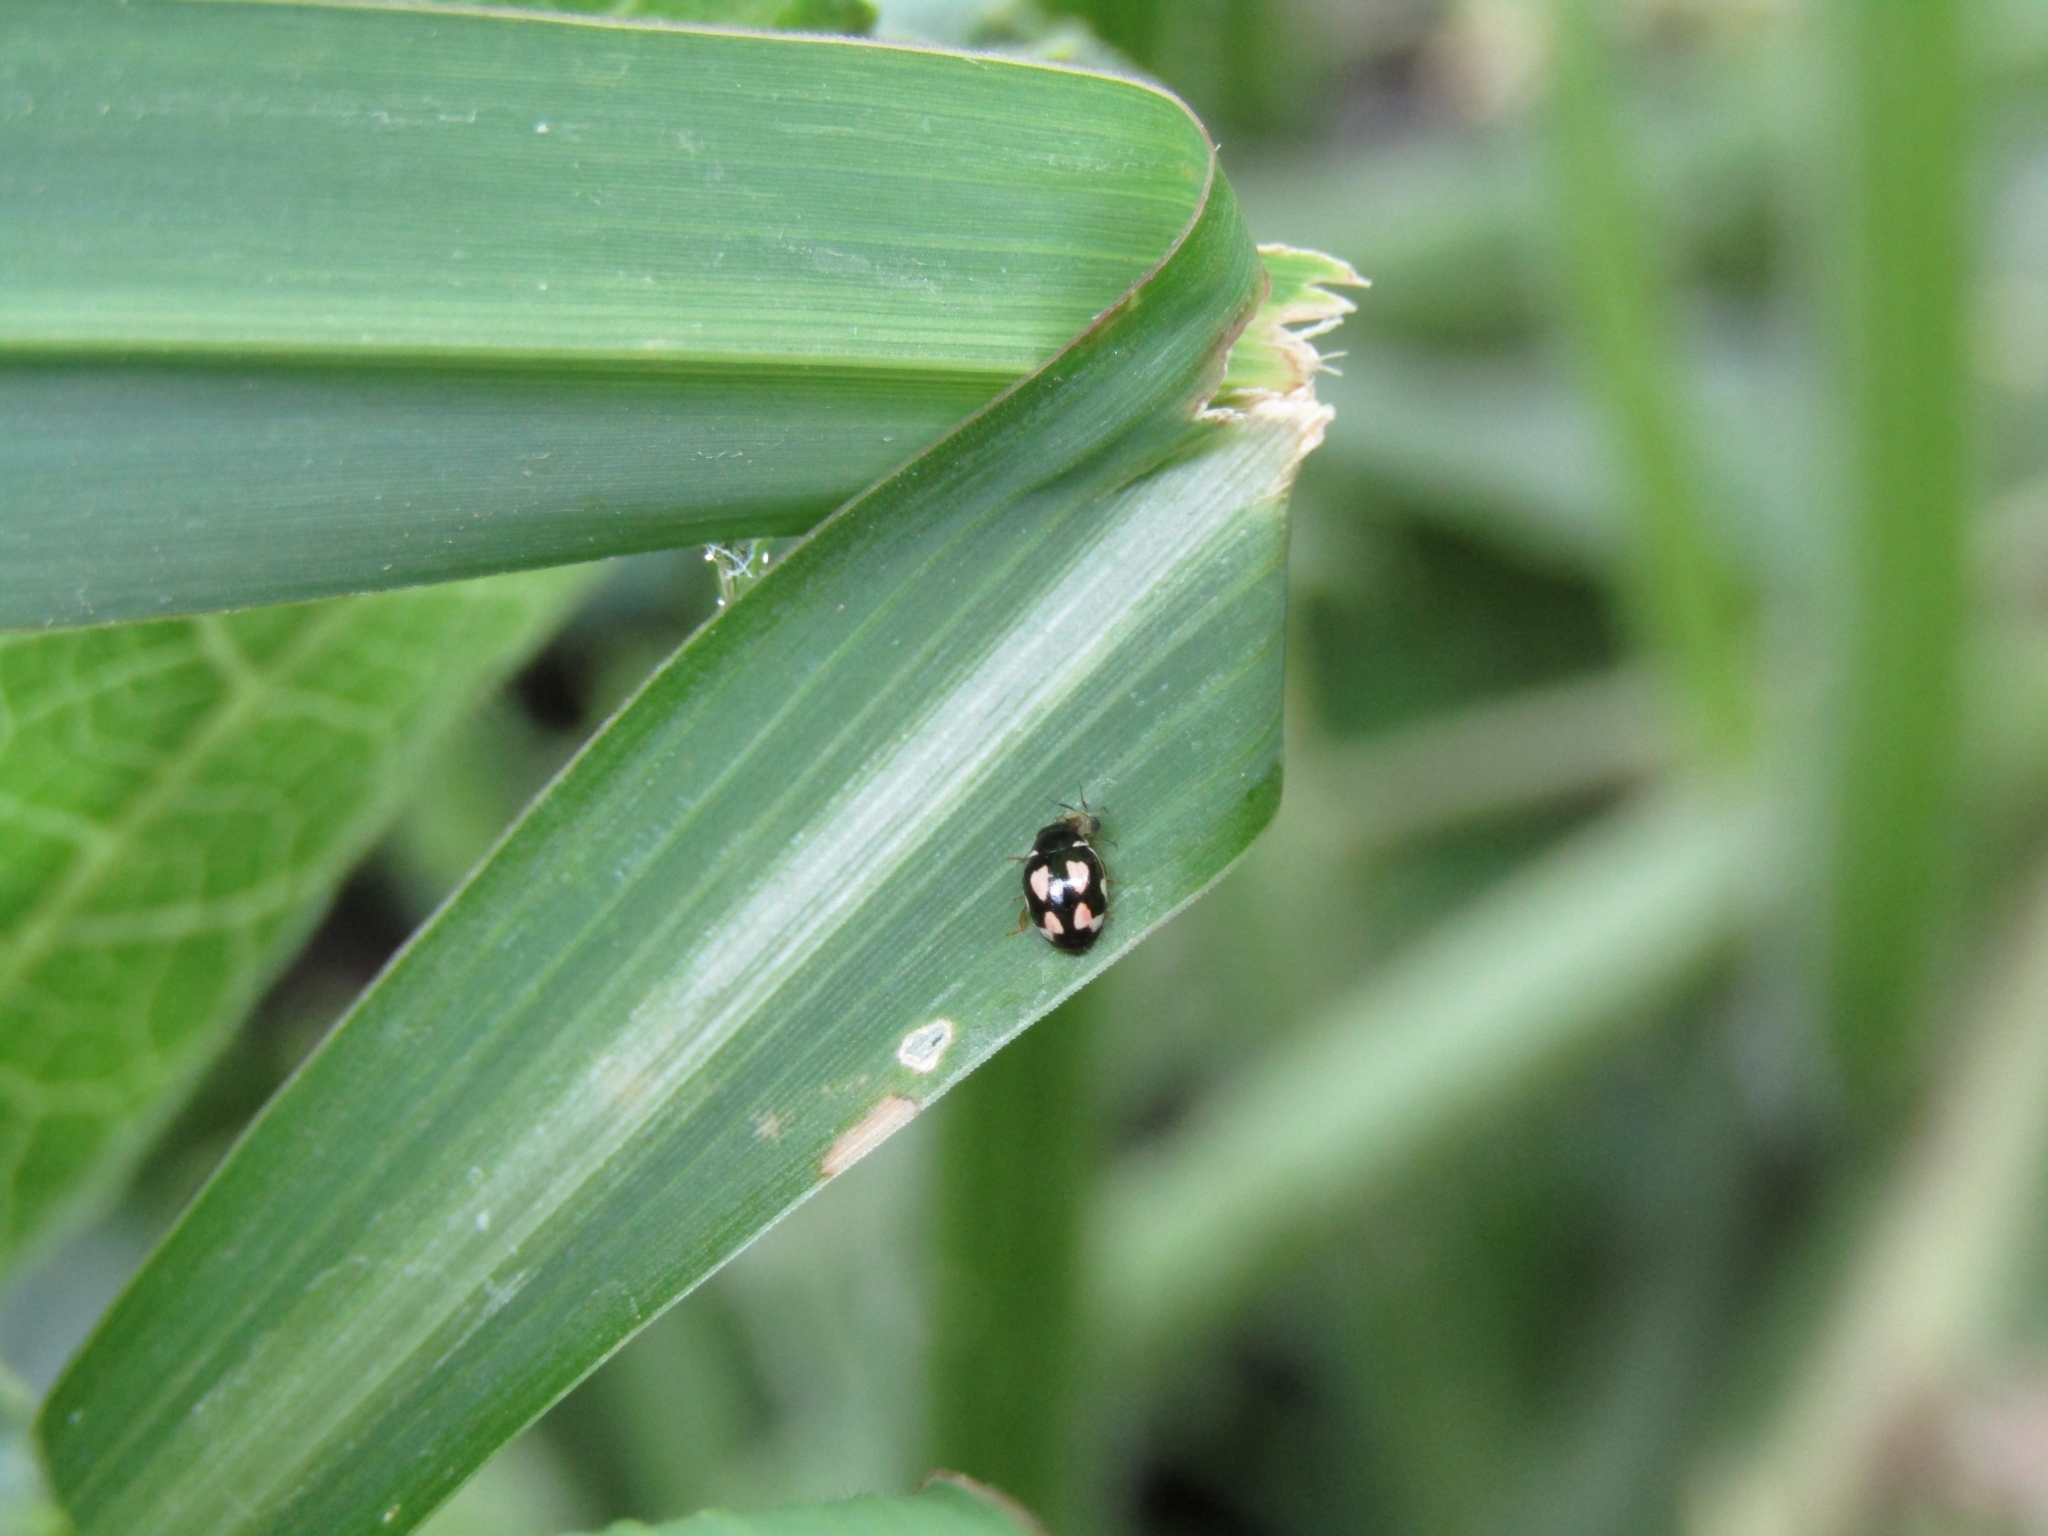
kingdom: Animalia
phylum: Arthropoda
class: Insecta
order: Coleoptera
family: Coccinellidae
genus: Hyperaspis
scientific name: Hyperaspis festiva
